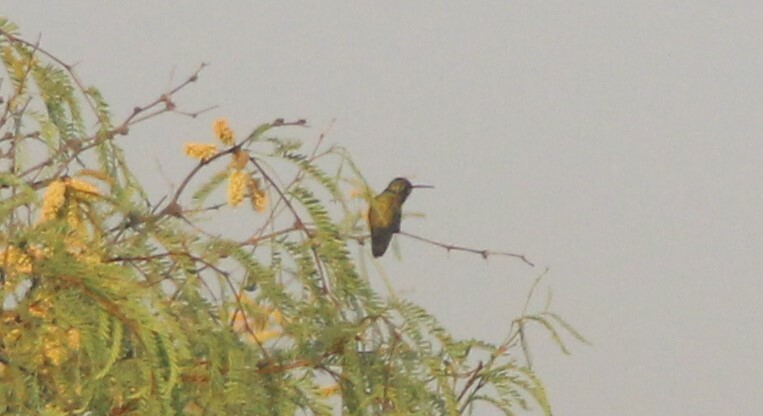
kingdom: Animalia
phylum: Chordata
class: Aves
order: Apodiformes
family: Trochilidae
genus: Cynanthus
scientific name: Cynanthus latirostris
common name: Broad-billed hummingbird
